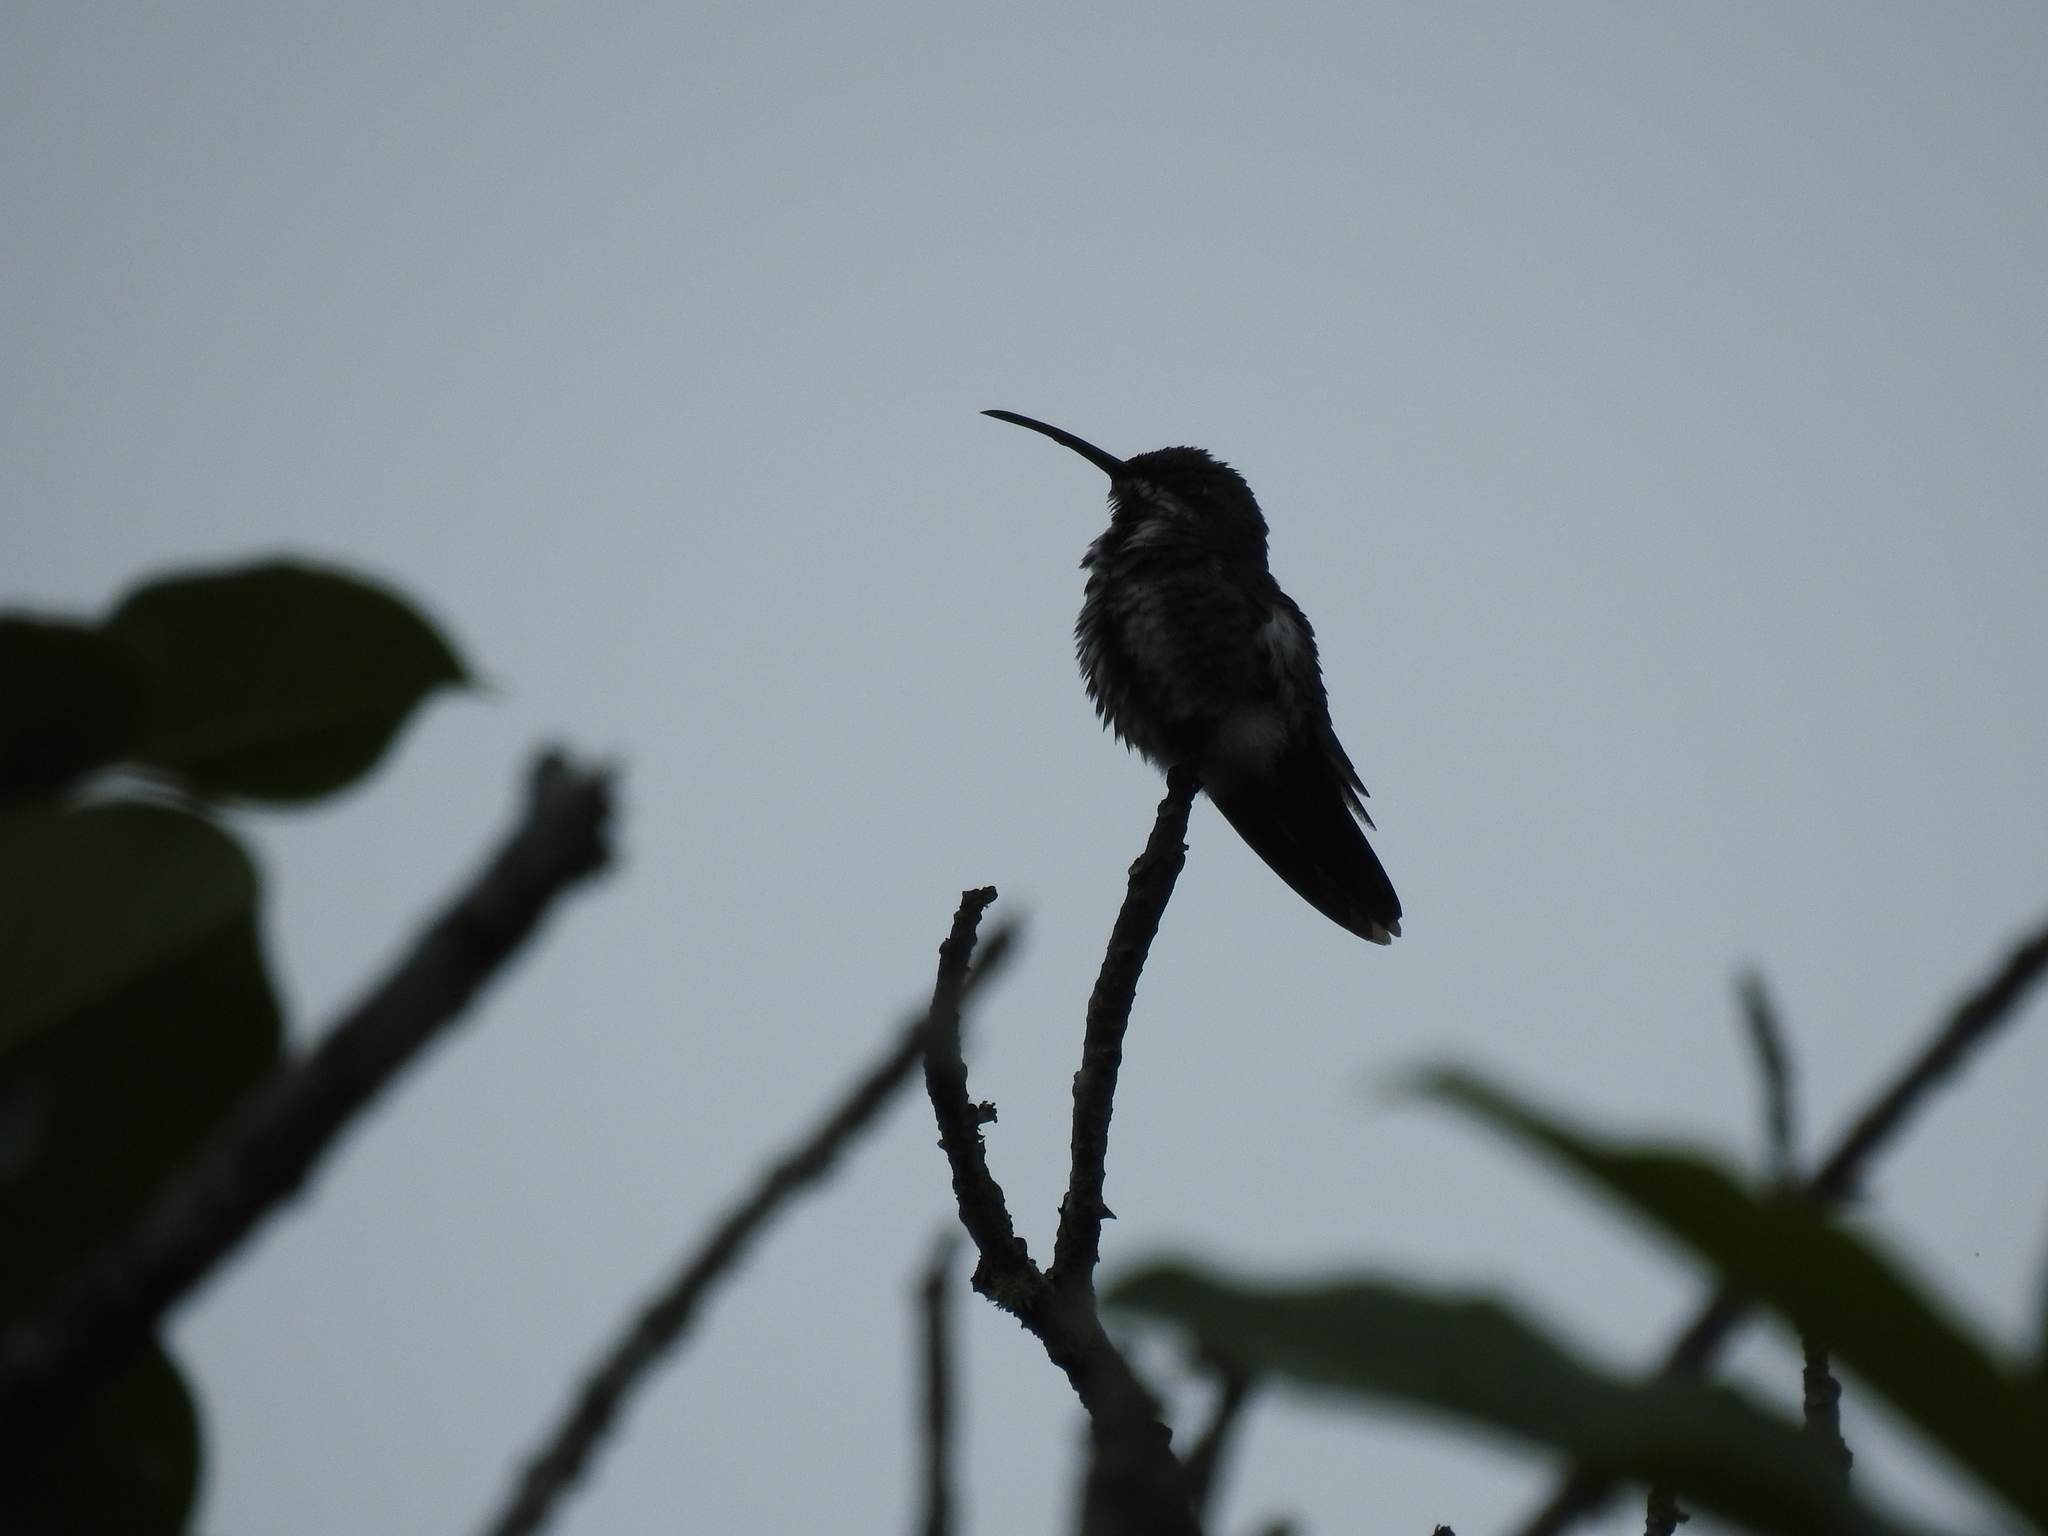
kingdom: Animalia
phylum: Chordata
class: Aves
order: Apodiformes
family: Trochilidae
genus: Anthracothorax
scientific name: Anthracothorax prevostii
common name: Green-breasted mango
